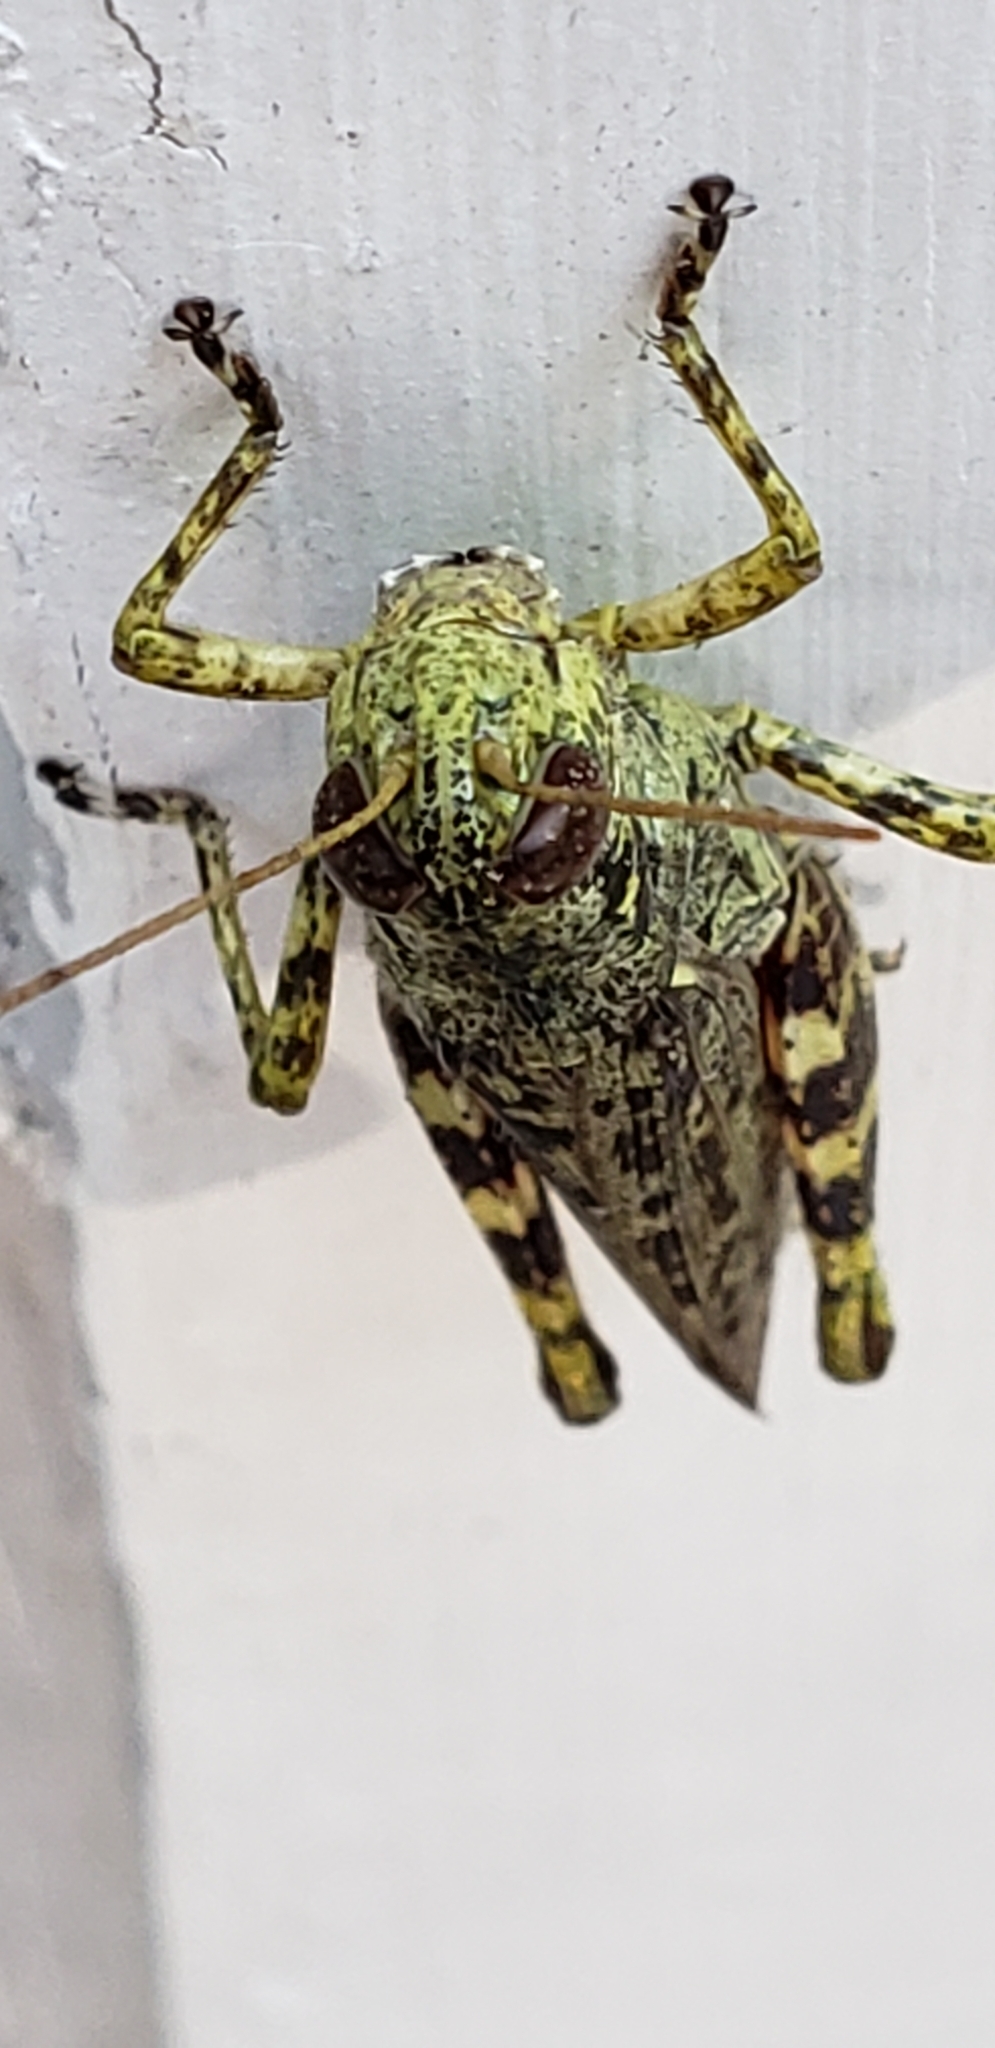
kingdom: Animalia
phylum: Arthropoda
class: Insecta
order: Orthoptera
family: Acrididae
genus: Melanoplus
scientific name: Melanoplus punctulatus
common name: Pine-tree spur-throat grasshopper
